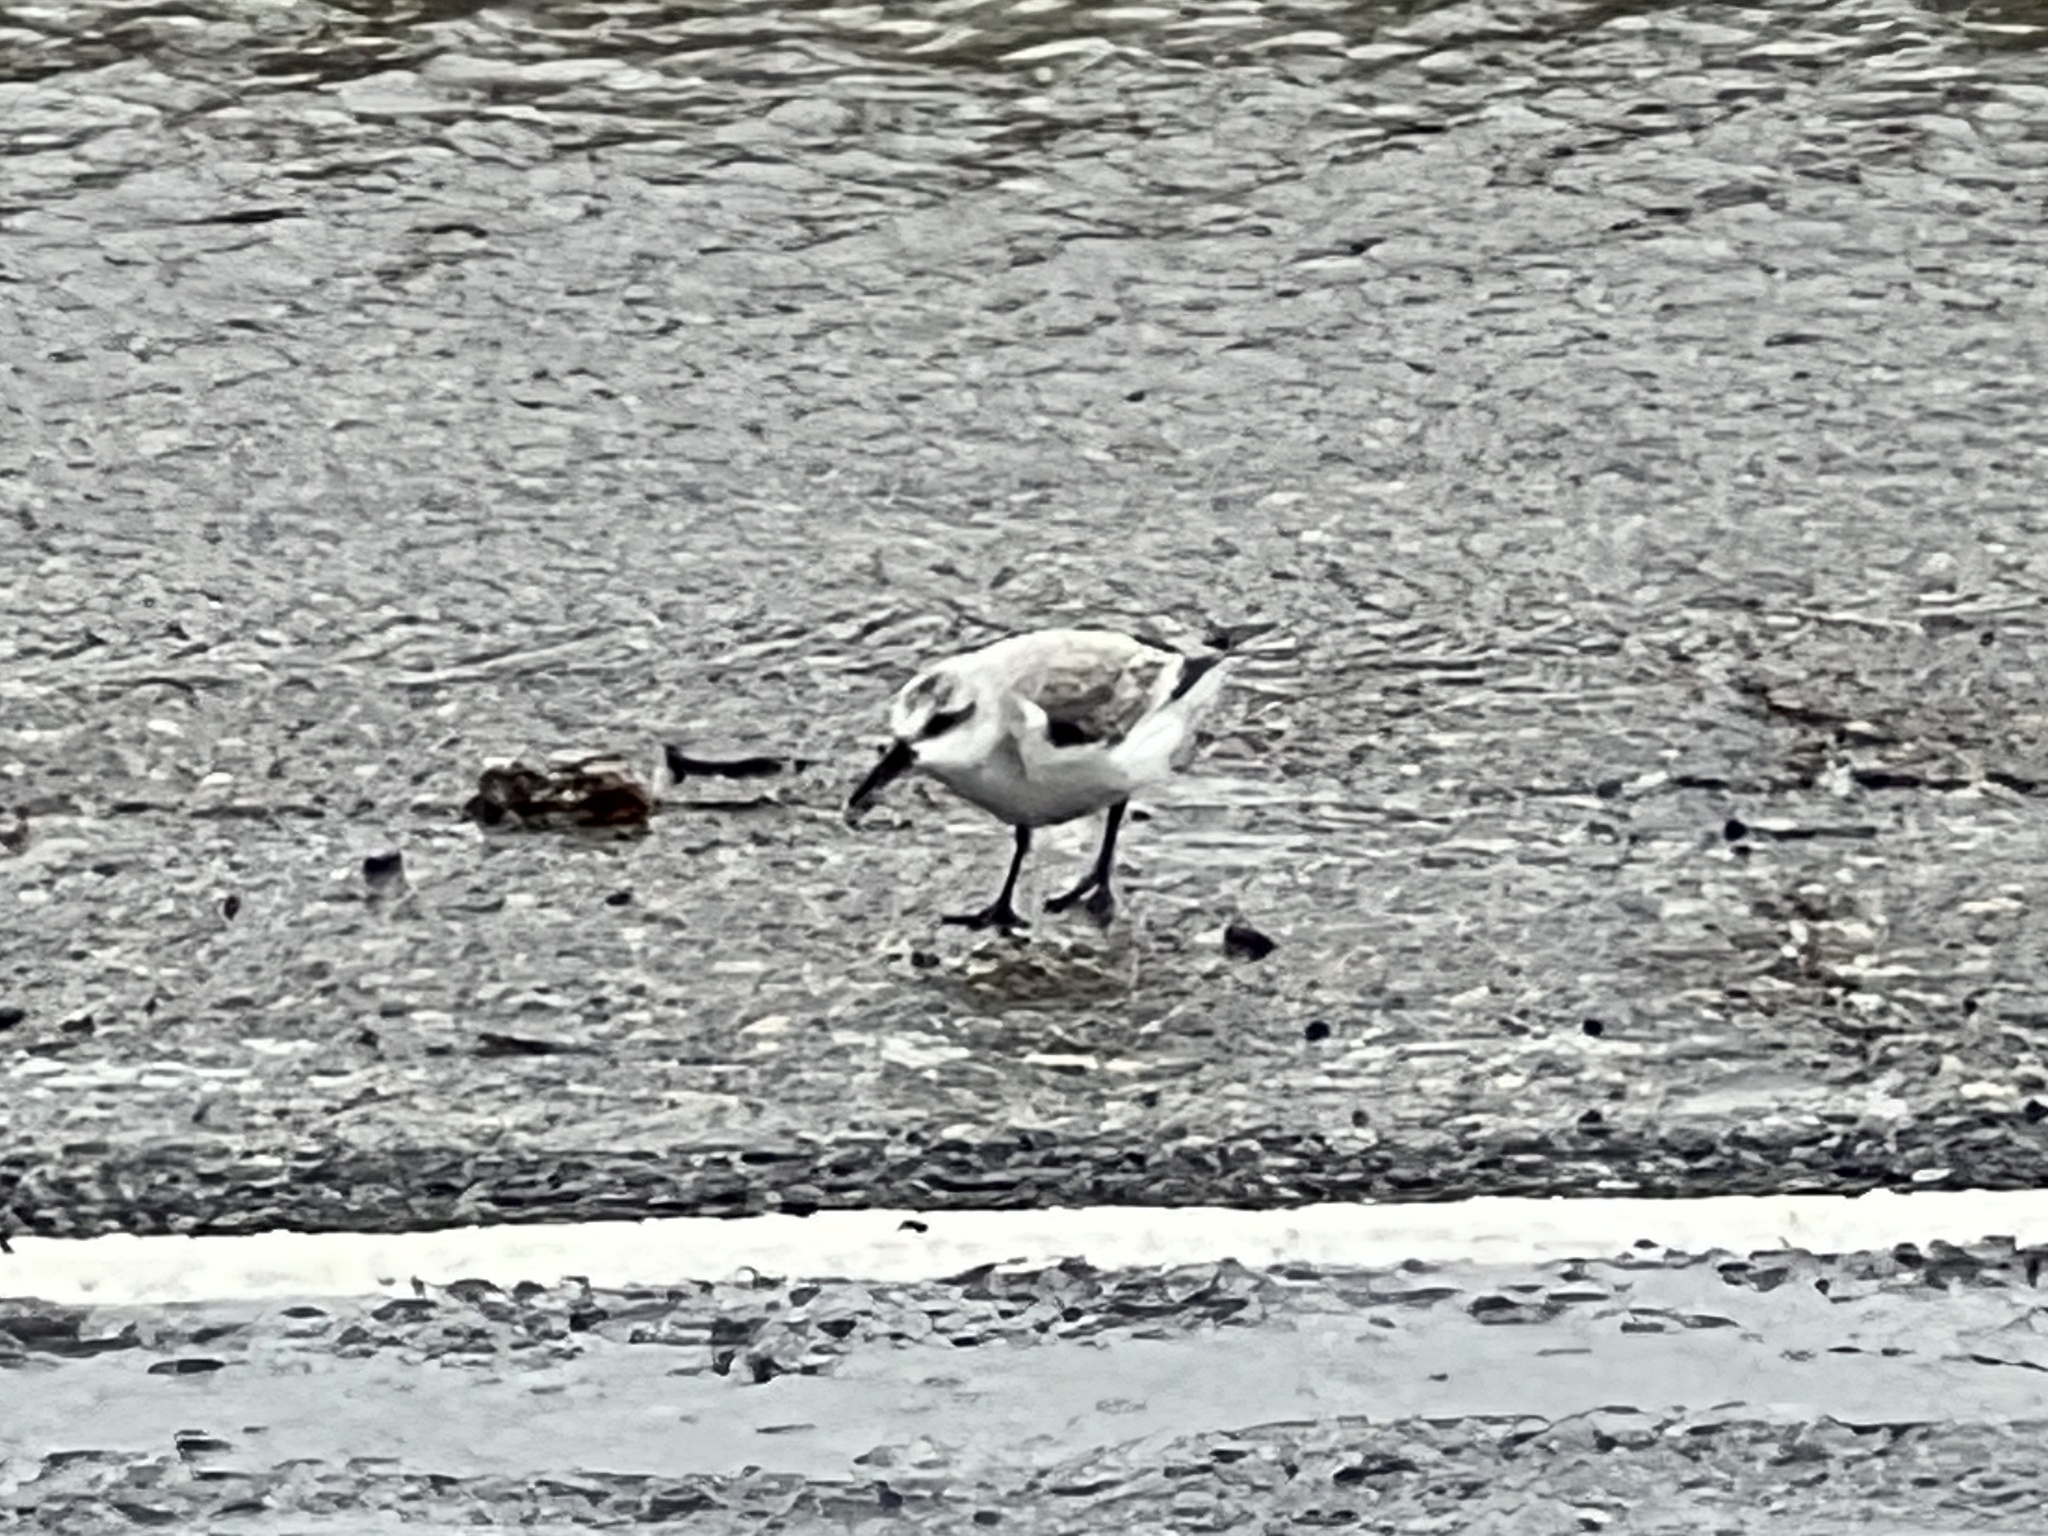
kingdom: Animalia
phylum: Chordata
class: Aves
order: Charadriiformes
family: Scolopacidae
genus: Calidris
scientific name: Calidris alba
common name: Sanderling
